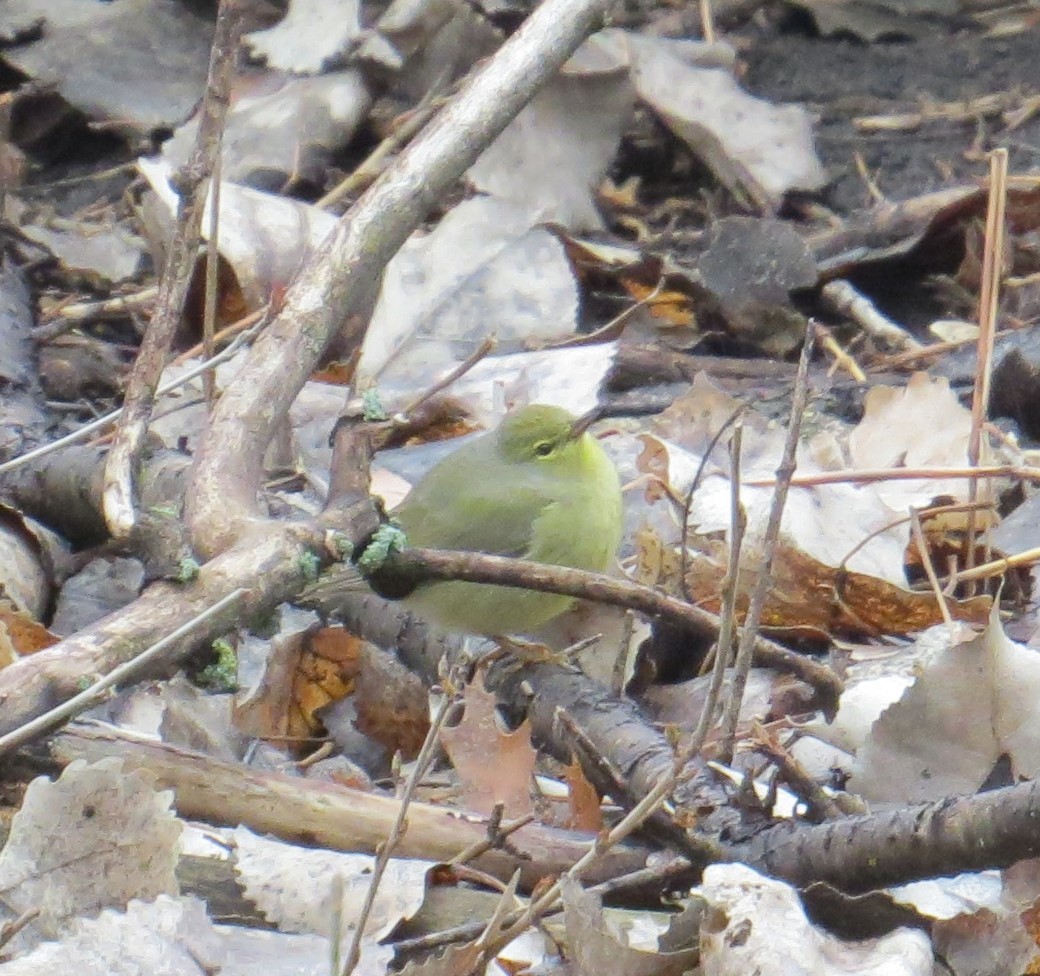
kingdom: Animalia
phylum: Chordata
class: Aves
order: Passeriformes
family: Parulidae
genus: Leiothlypis
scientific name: Leiothlypis celata
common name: Orange-crowned warbler
